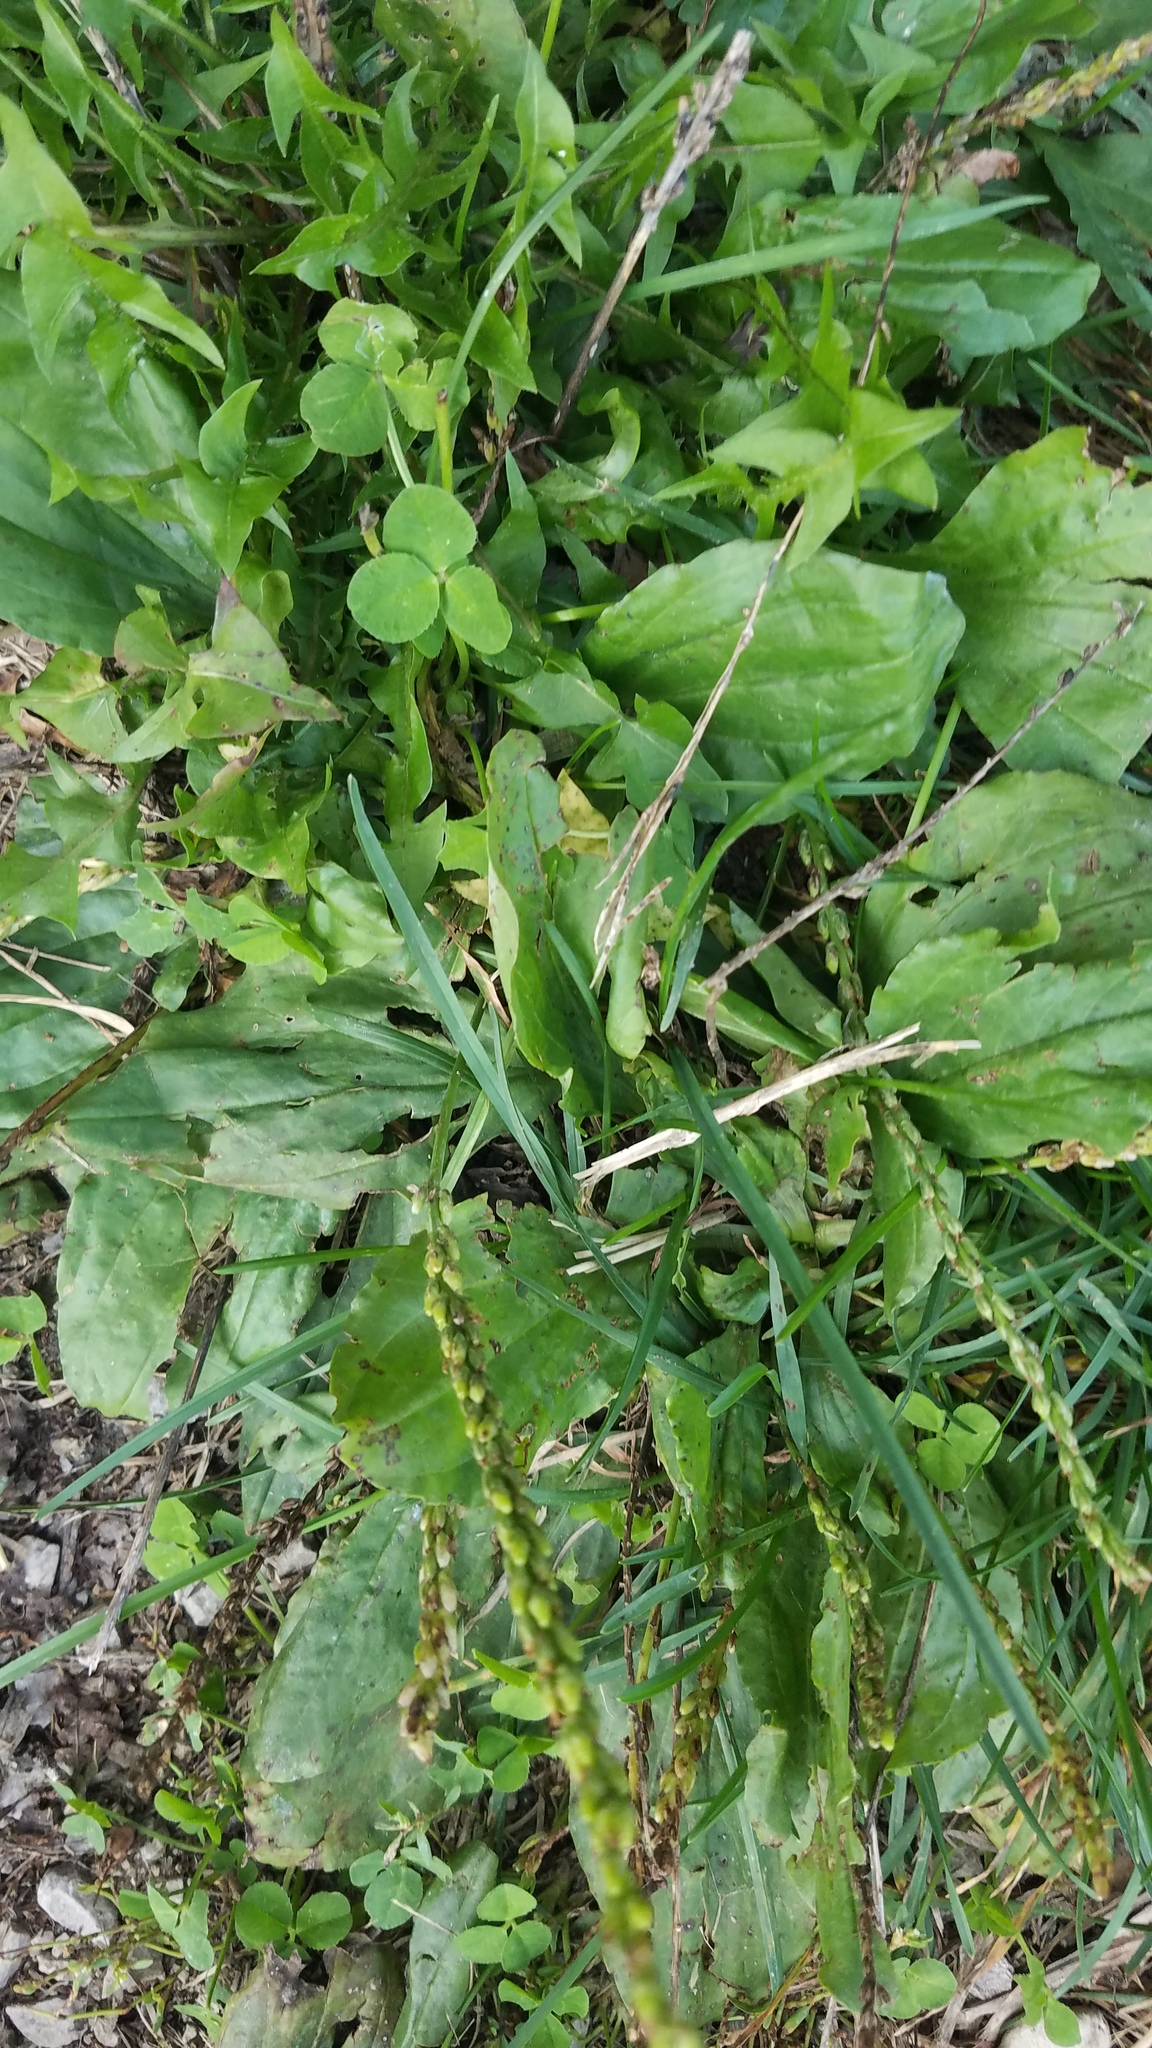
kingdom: Plantae
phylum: Tracheophyta
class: Magnoliopsida
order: Lamiales
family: Plantaginaceae
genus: Plantago
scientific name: Plantago rugelii
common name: American plantain
